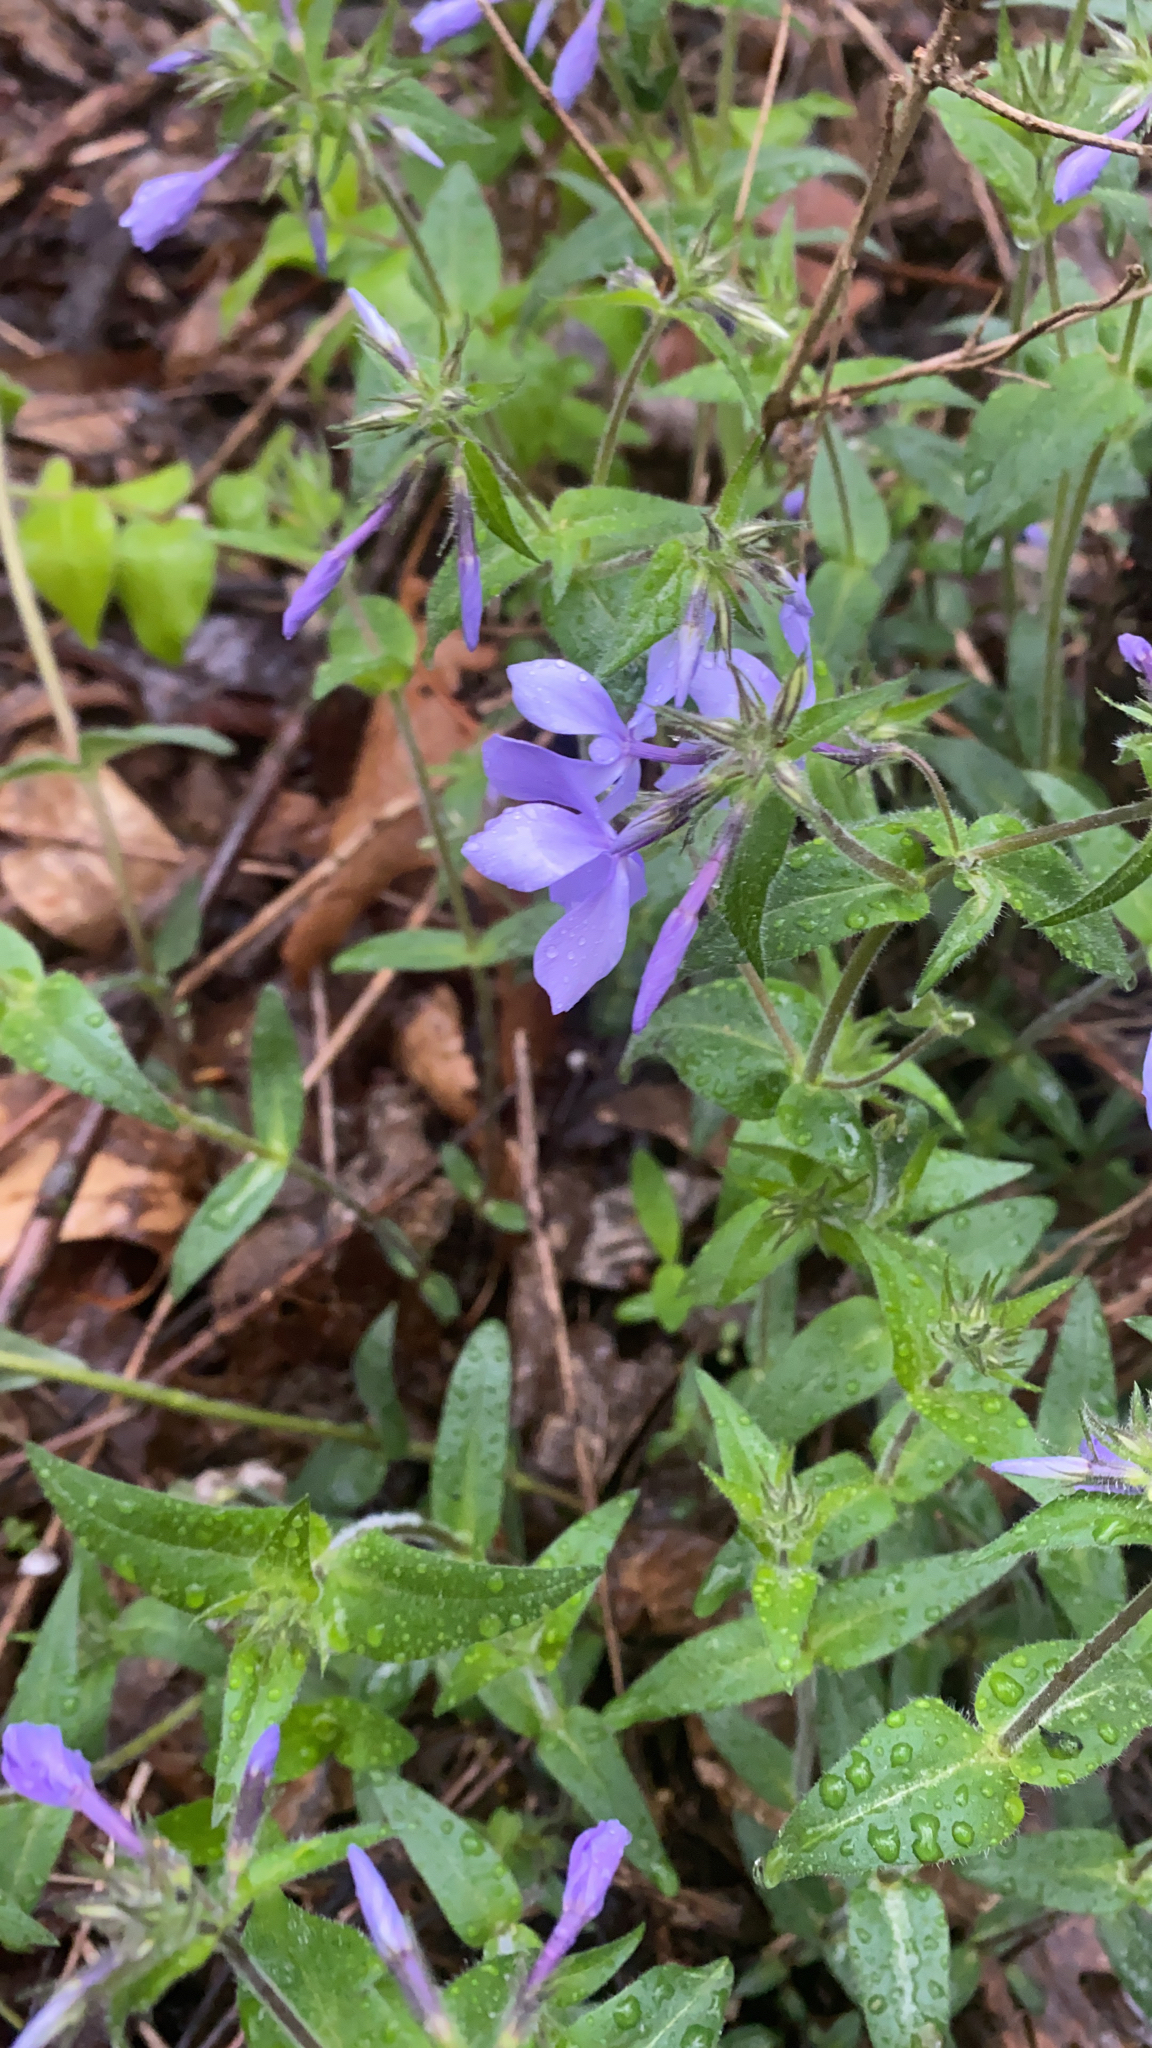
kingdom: Plantae
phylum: Tracheophyta
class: Magnoliopsida
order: Ericales
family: Polemoniaceae
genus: Phlox
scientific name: Phlox divaricata
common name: Blue phlox
